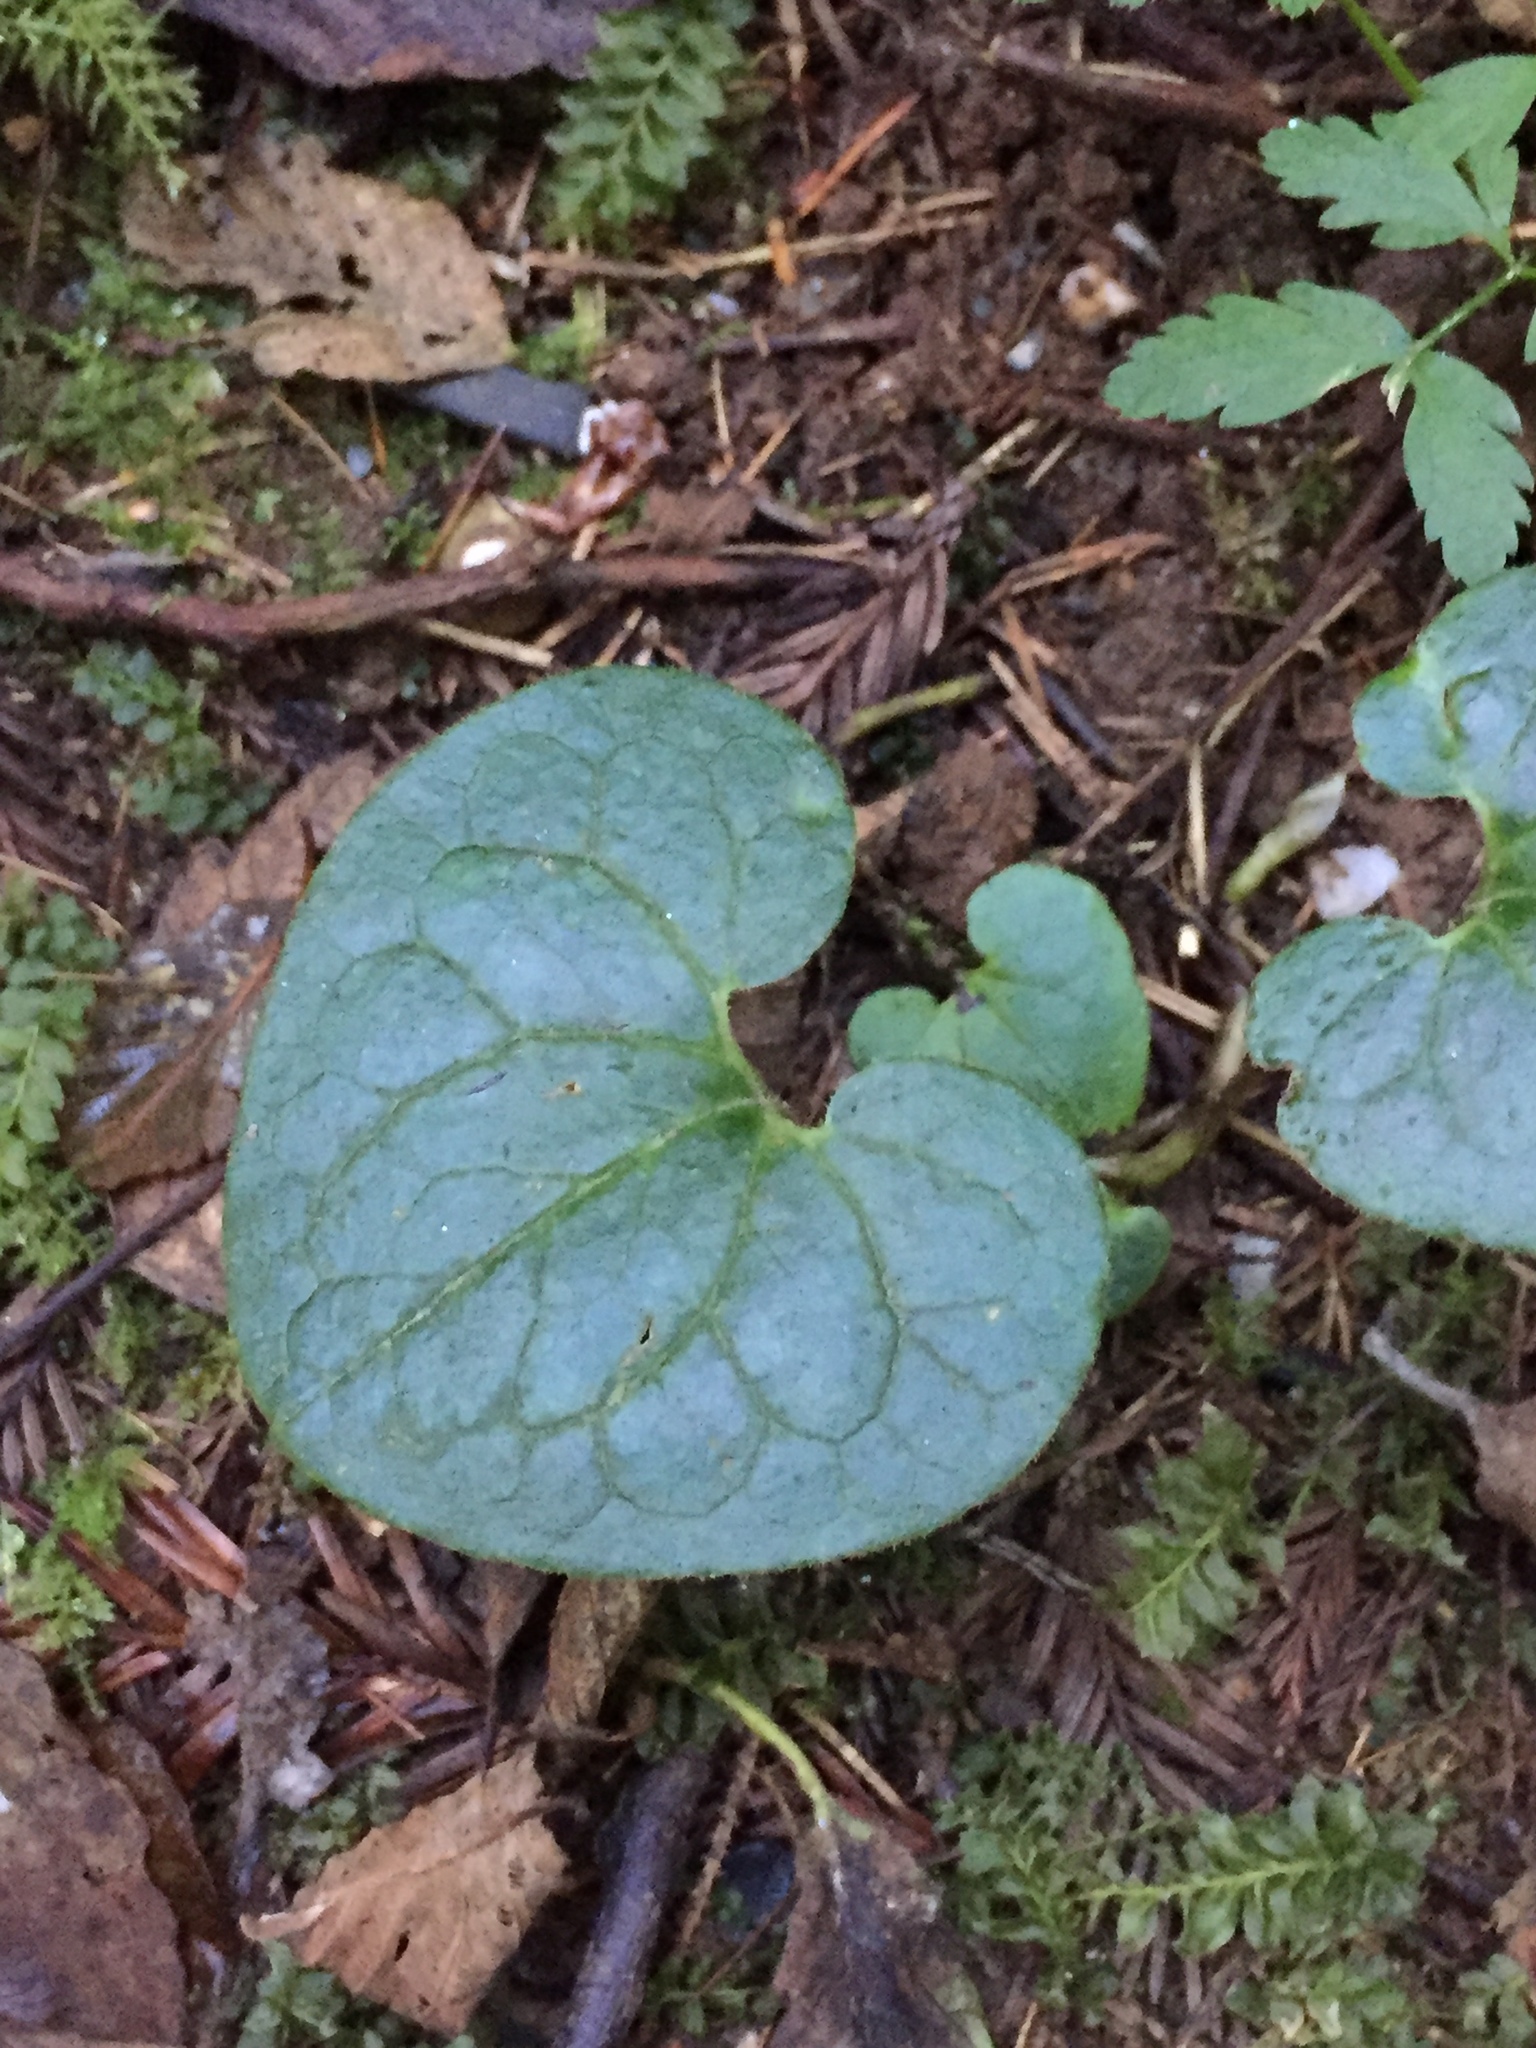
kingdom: Plantae
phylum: Tracheophyta
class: Magnoliopsida
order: Piperales
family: Aristolochiaceae
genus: Asarum
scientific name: Asarum caudatum
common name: Wild ginger
